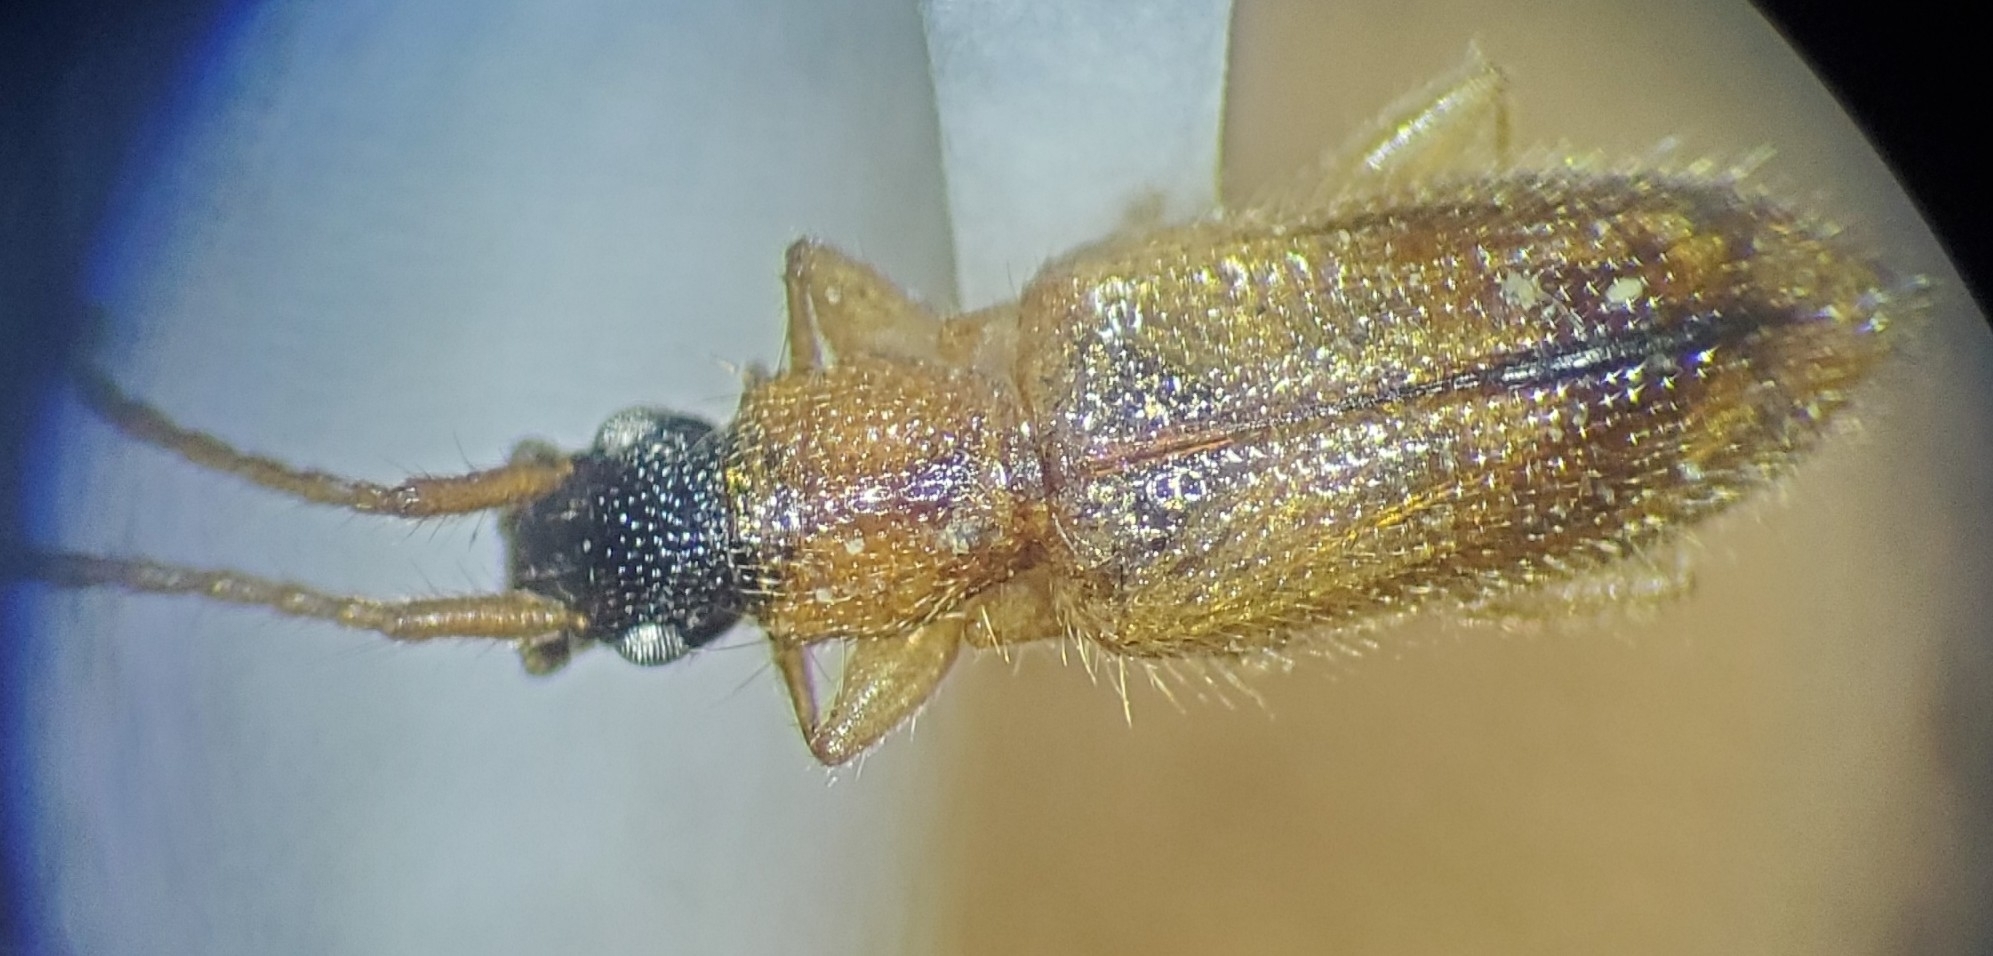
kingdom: Animalia
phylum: Arthropoda
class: Insecta
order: Coleoptera
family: Silvanidae
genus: Telephanus
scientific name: Telephanus velox
